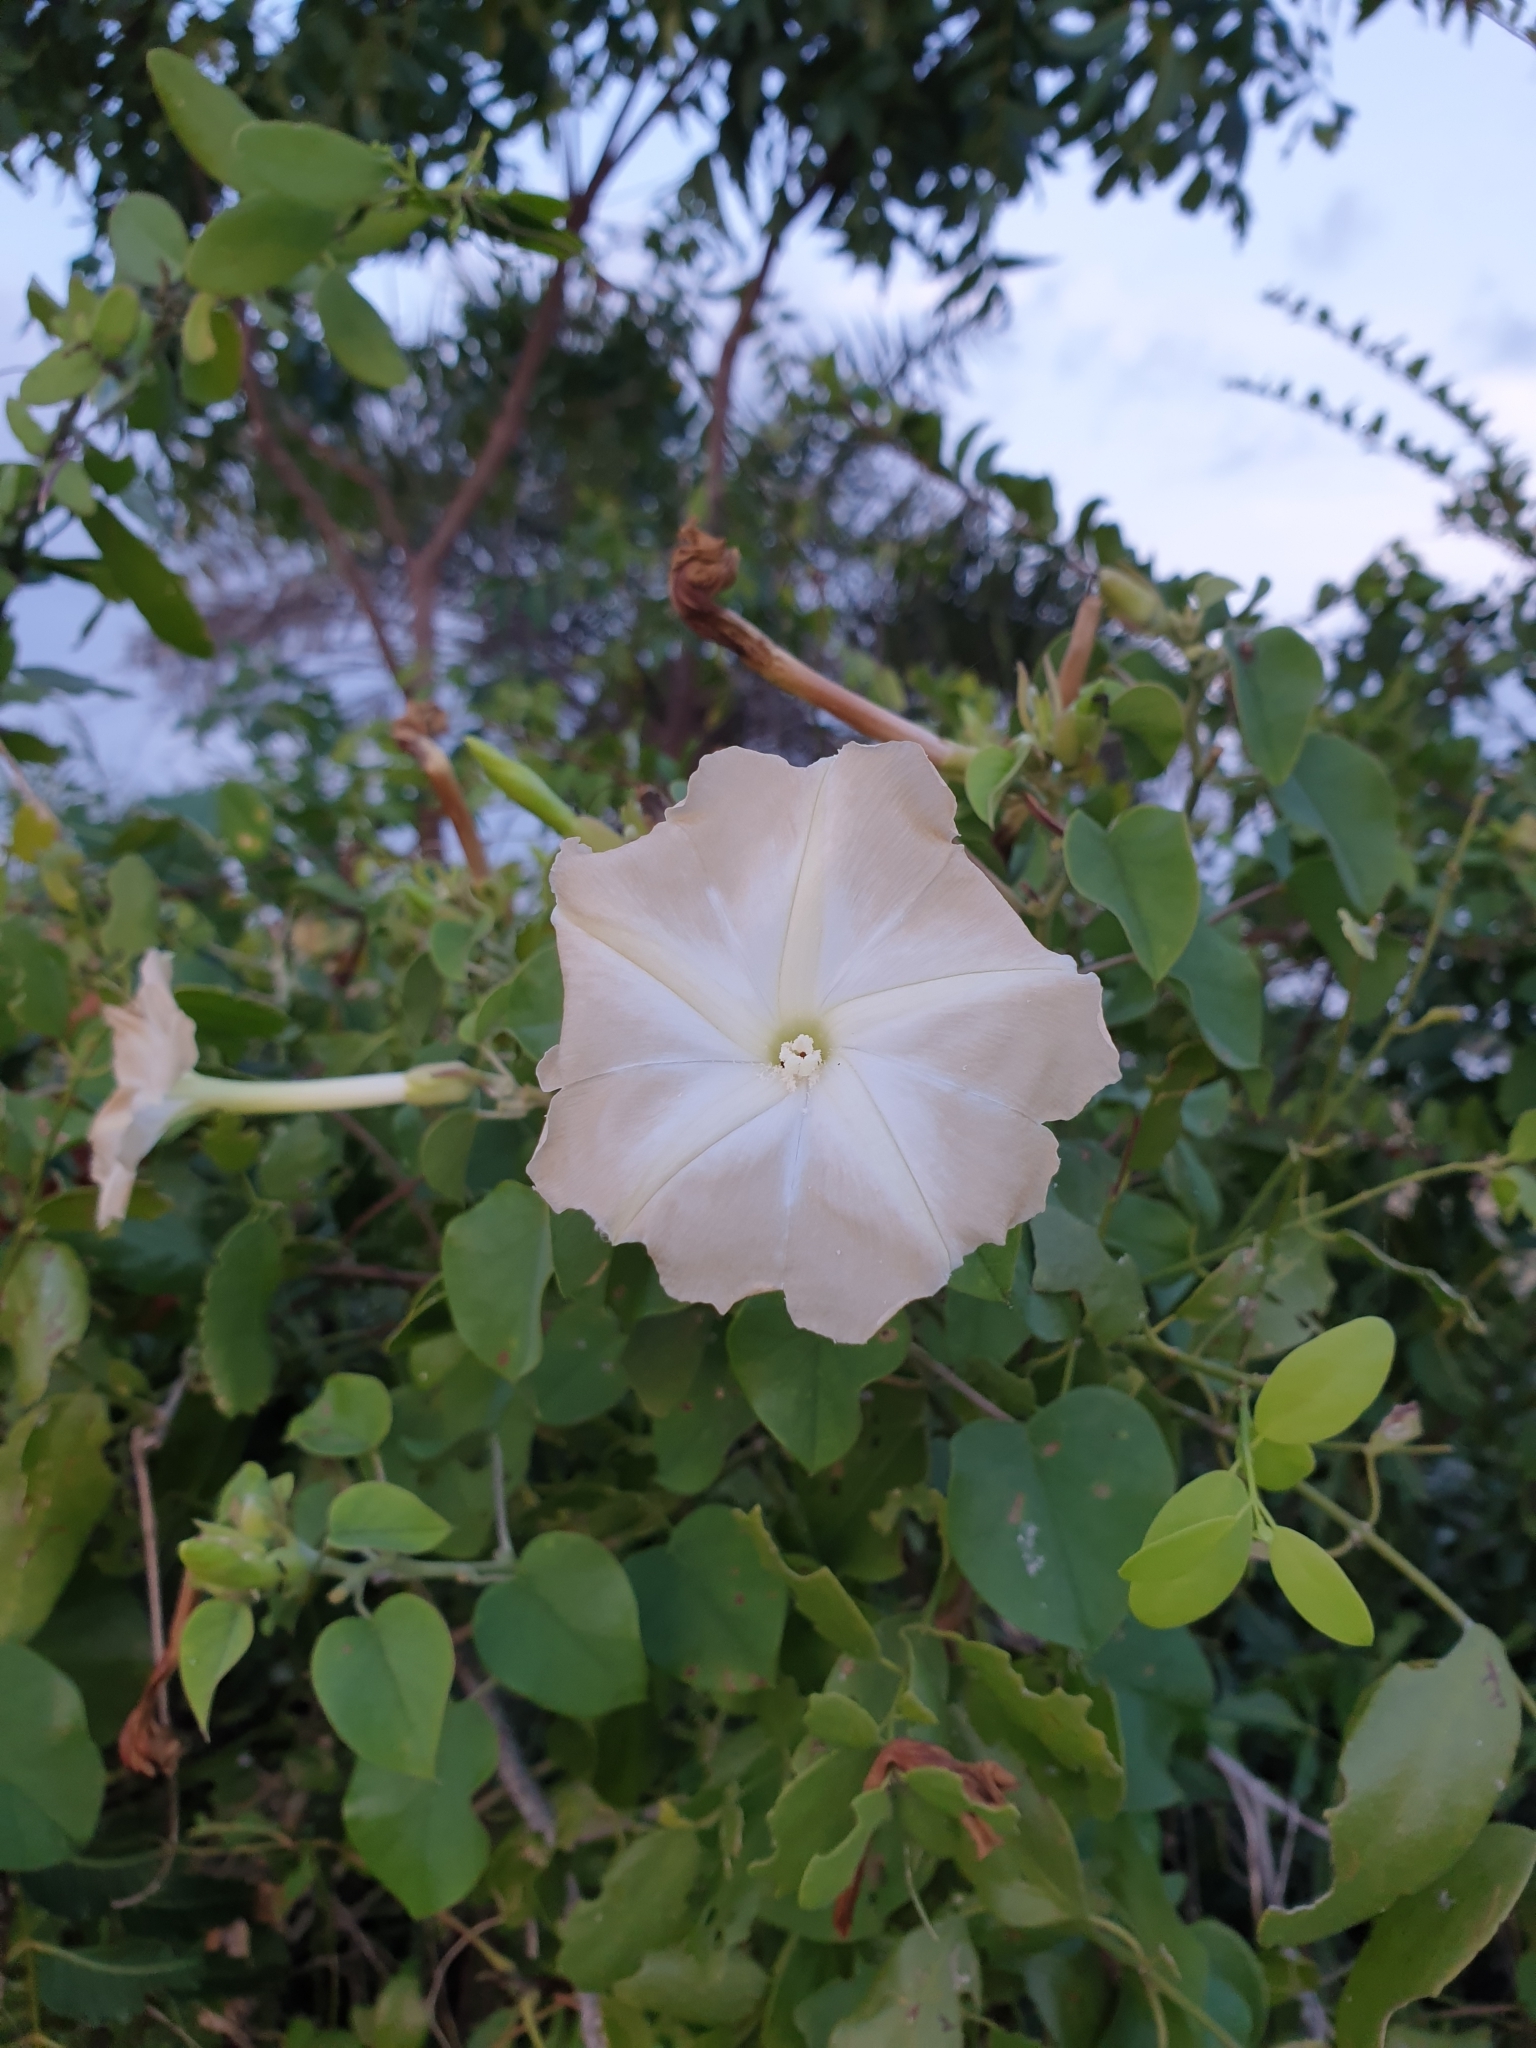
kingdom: Plantae
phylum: Tracheophyta
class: Magnoliopsida
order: Solanales
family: Convolvulaceae
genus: Rivea
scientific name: Rivea wightiana
